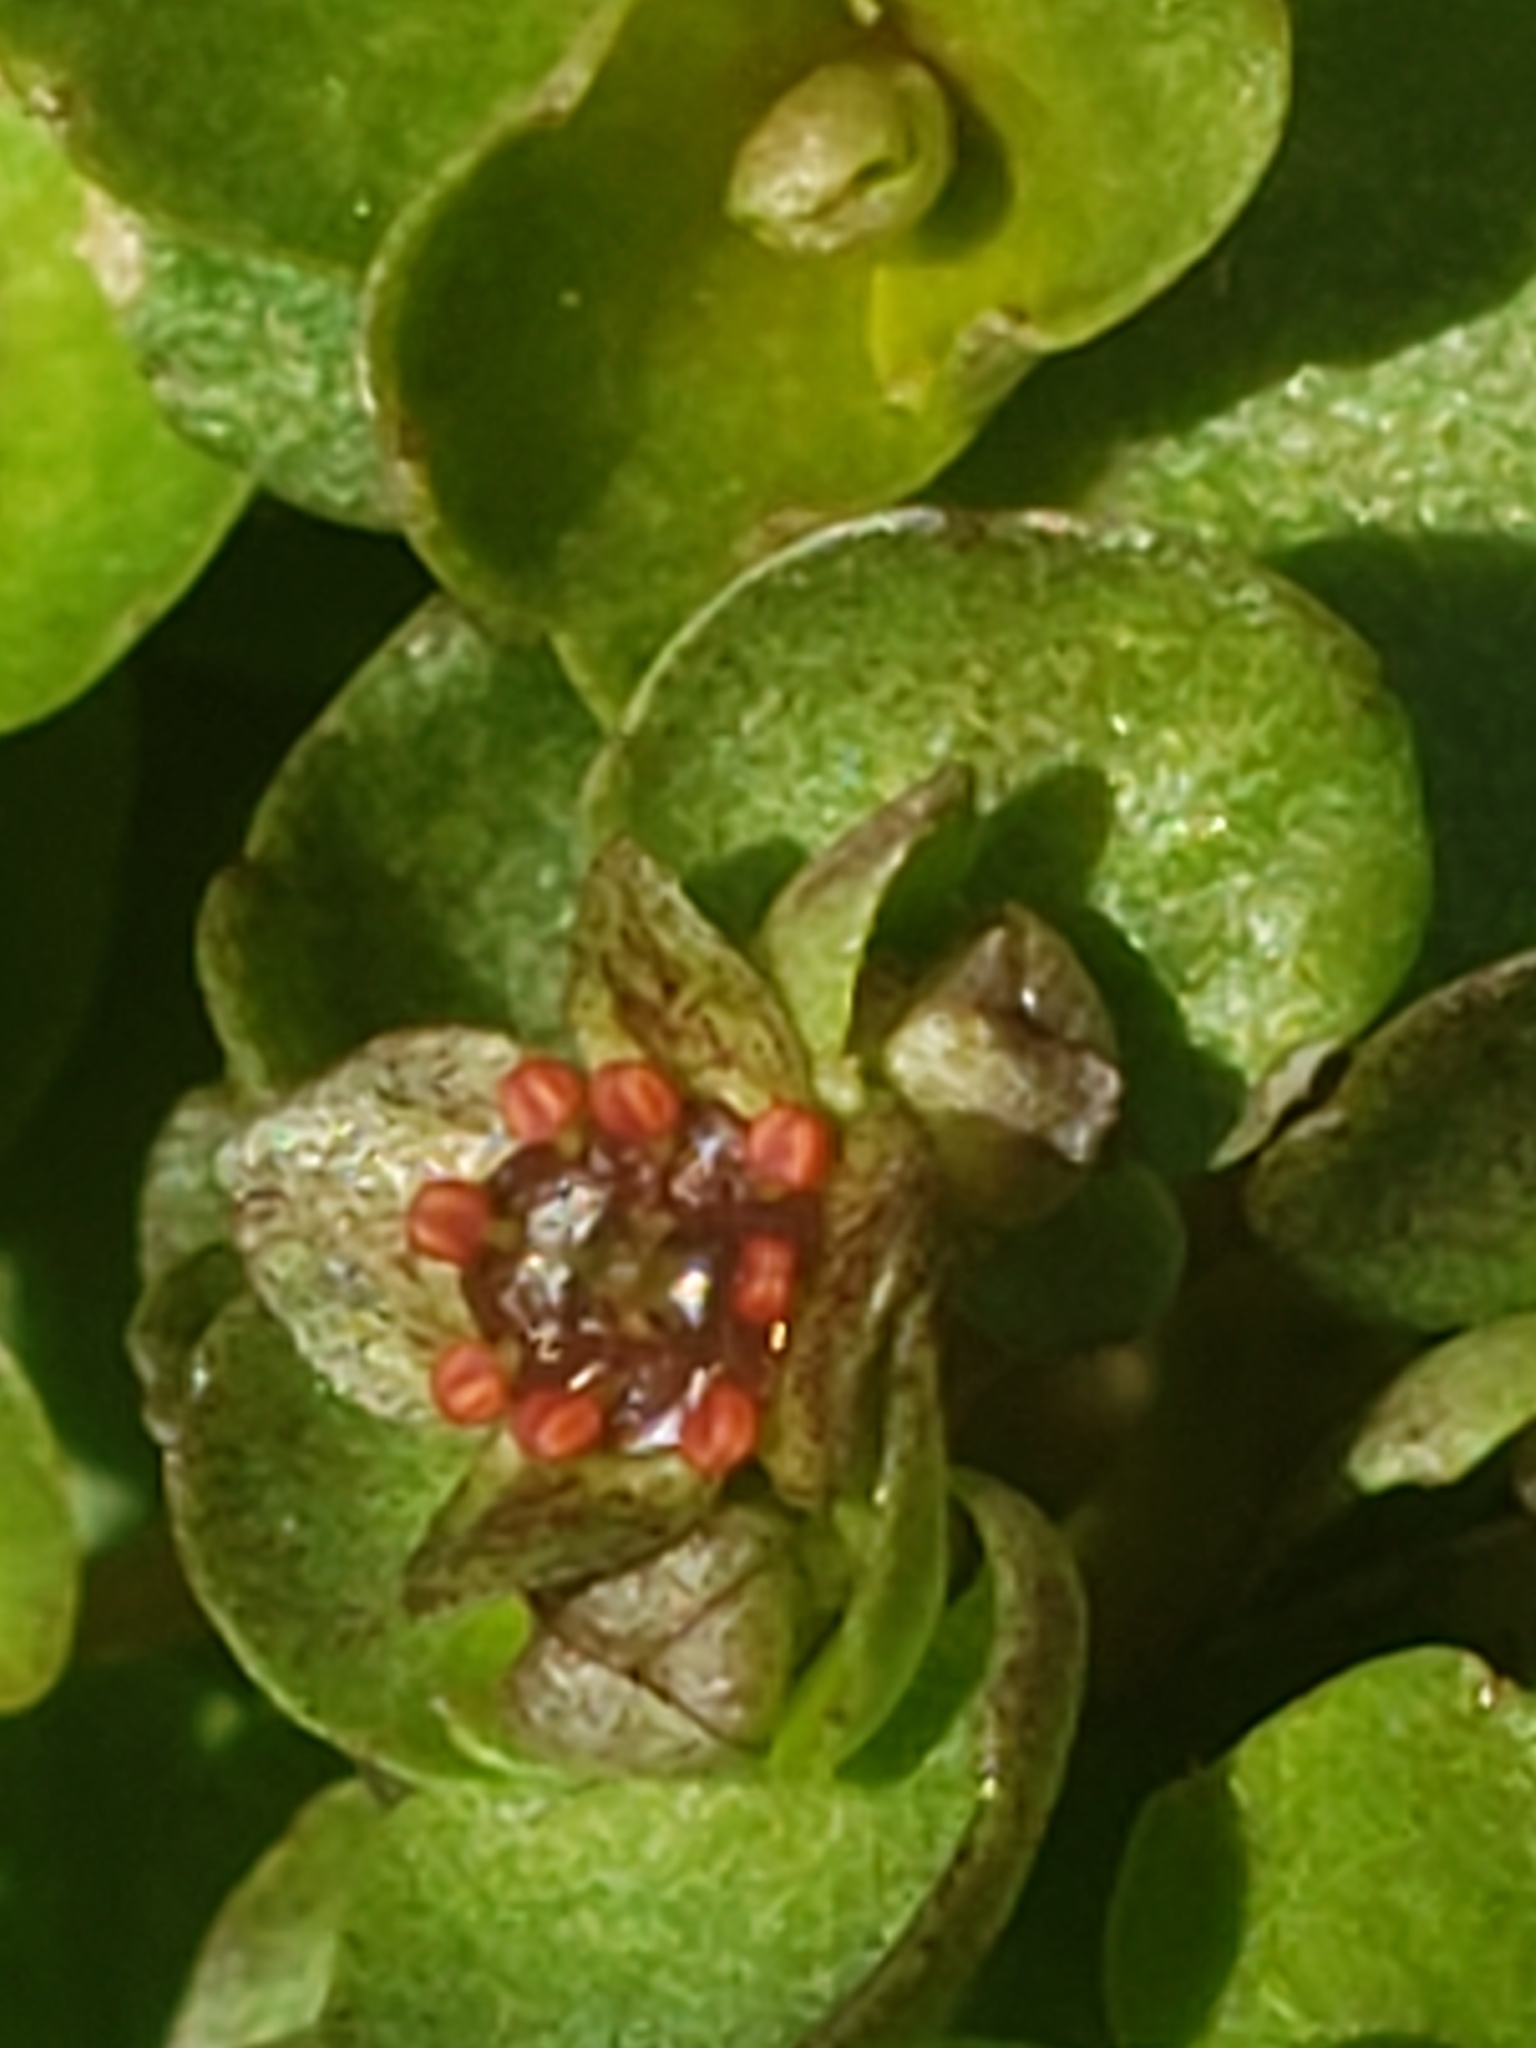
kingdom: Plantae
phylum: Tracheophyta
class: Magnoliopsida
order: Saxifragales
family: Saxifragaceae
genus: Chrysosplenium
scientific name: Chrysosplenium americanum
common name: American golden-saxifrage
